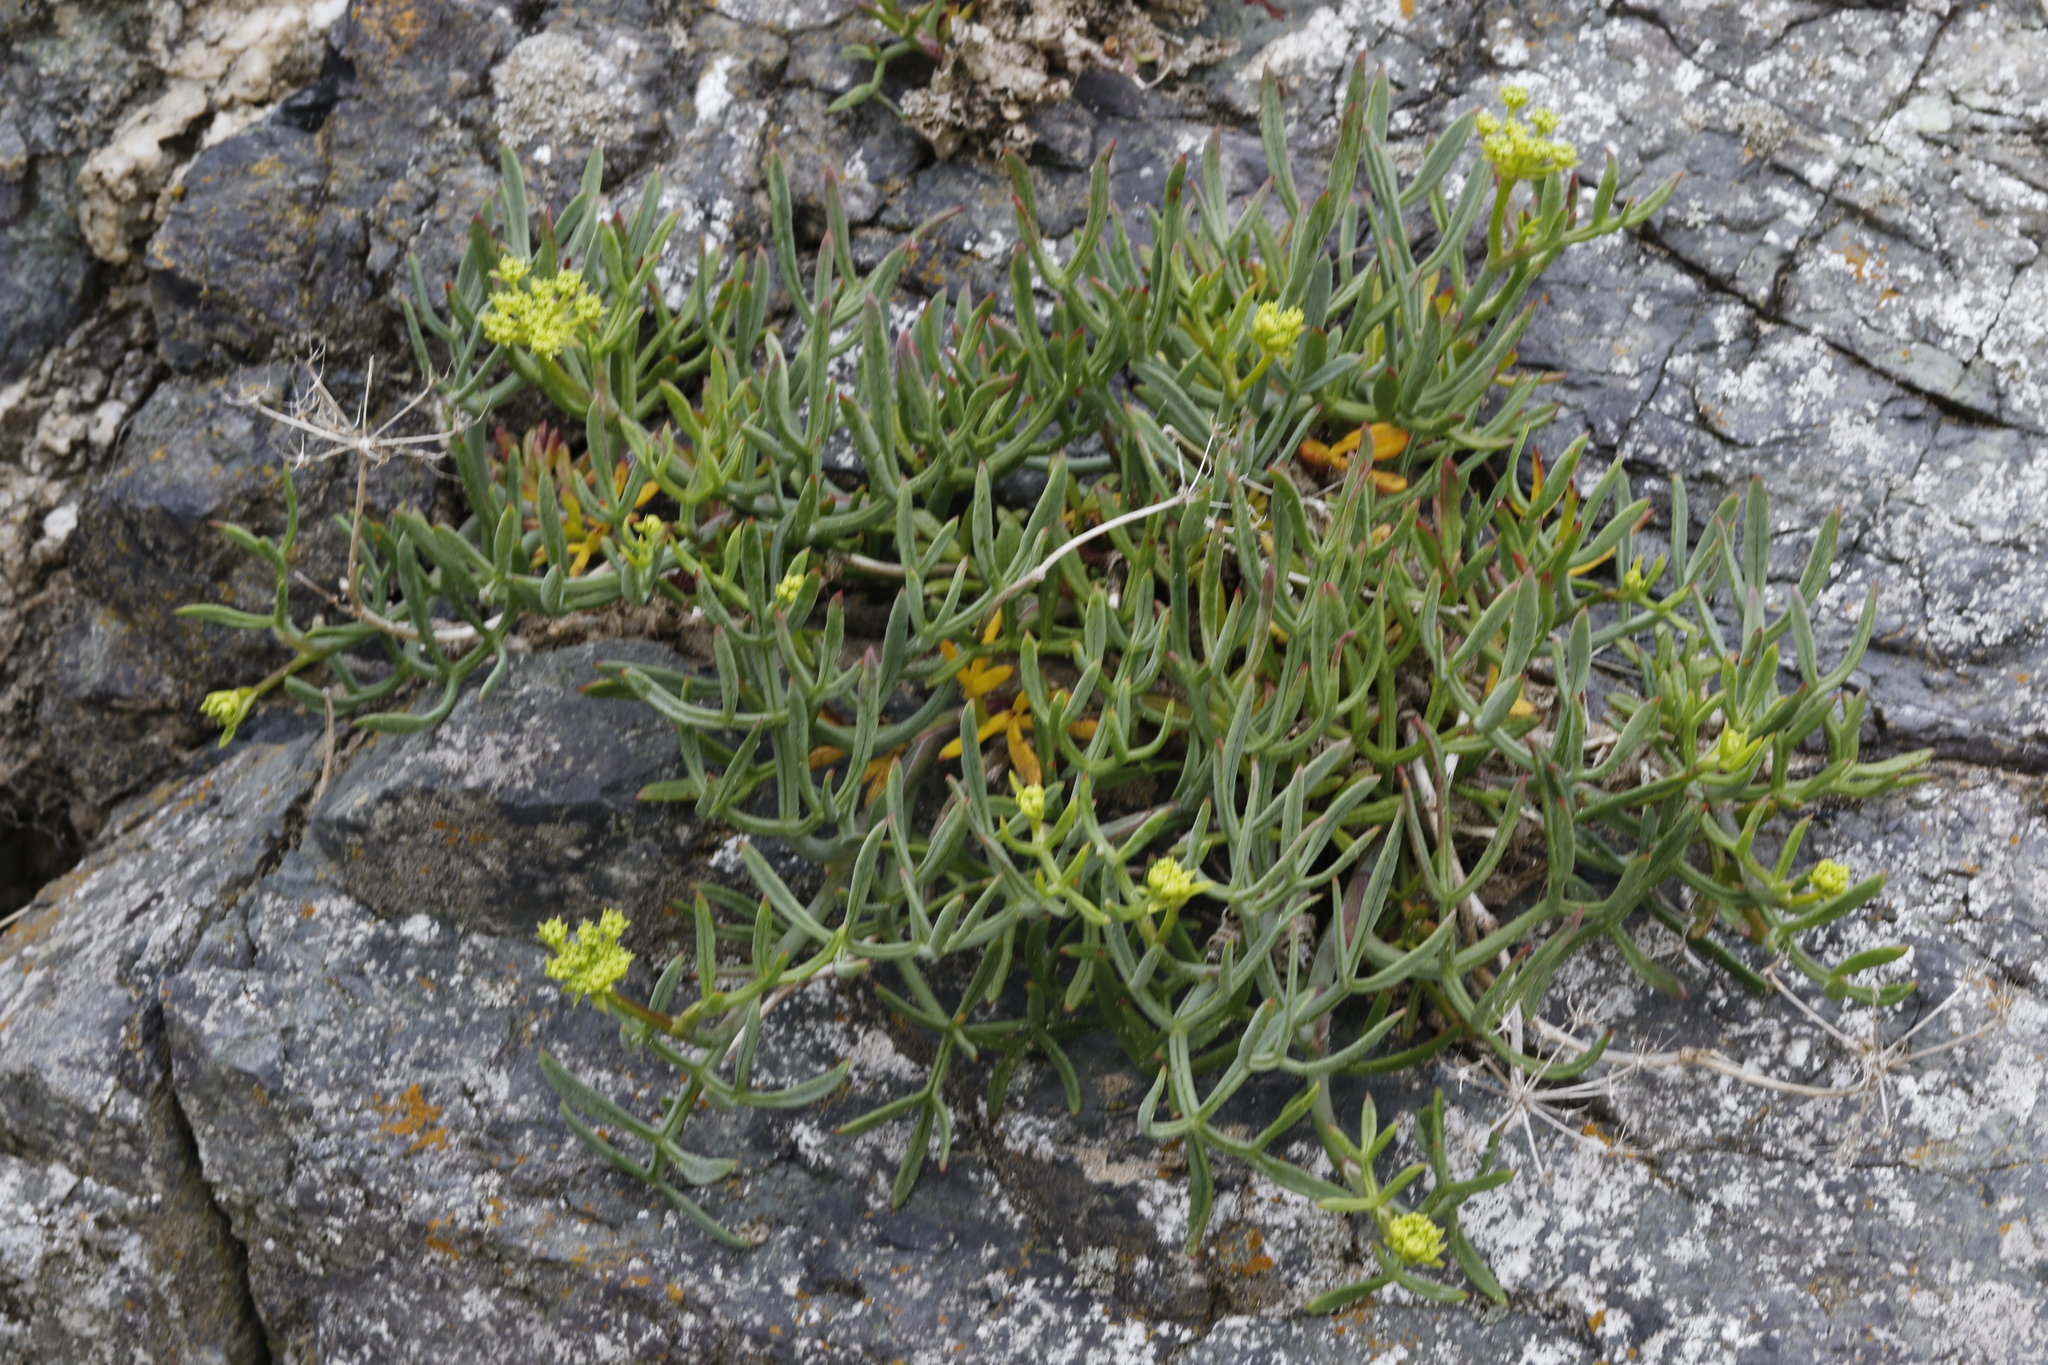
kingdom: Plantae
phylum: Tracheophyta
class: Magnoliopsida
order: Apiales
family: Apiaceae
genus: Crithmum
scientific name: Crithmum maritimum
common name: Rock samphire
